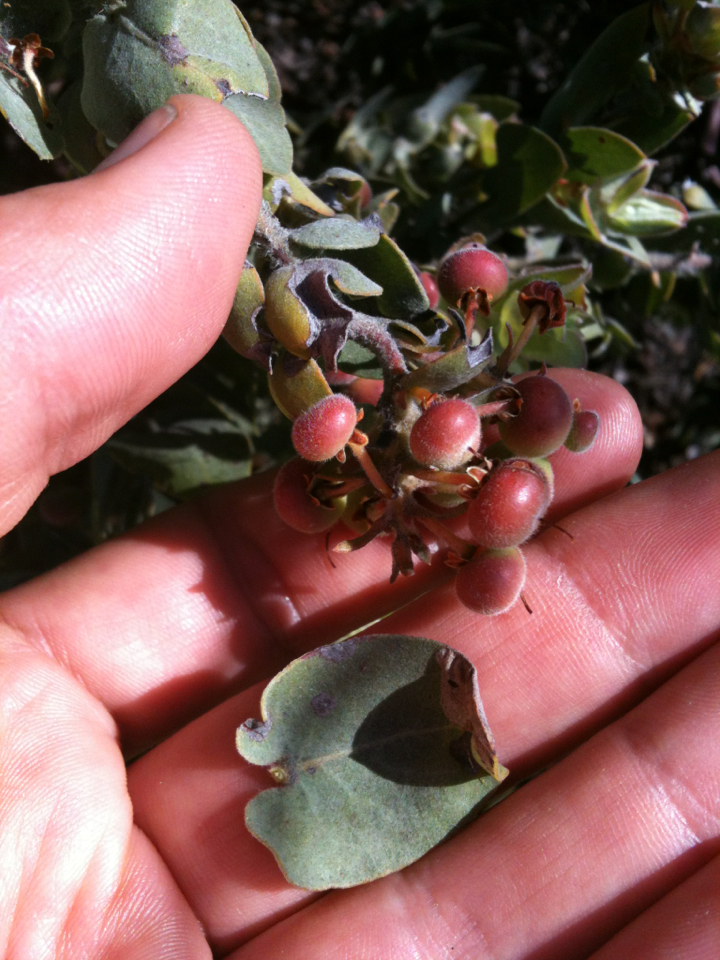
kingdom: Plantae
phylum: Tracheophyta
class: Magnoliopsida
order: Ericales
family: Ericaceae
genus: Arctostaphylos
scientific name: Arctostaphylos auriculata
